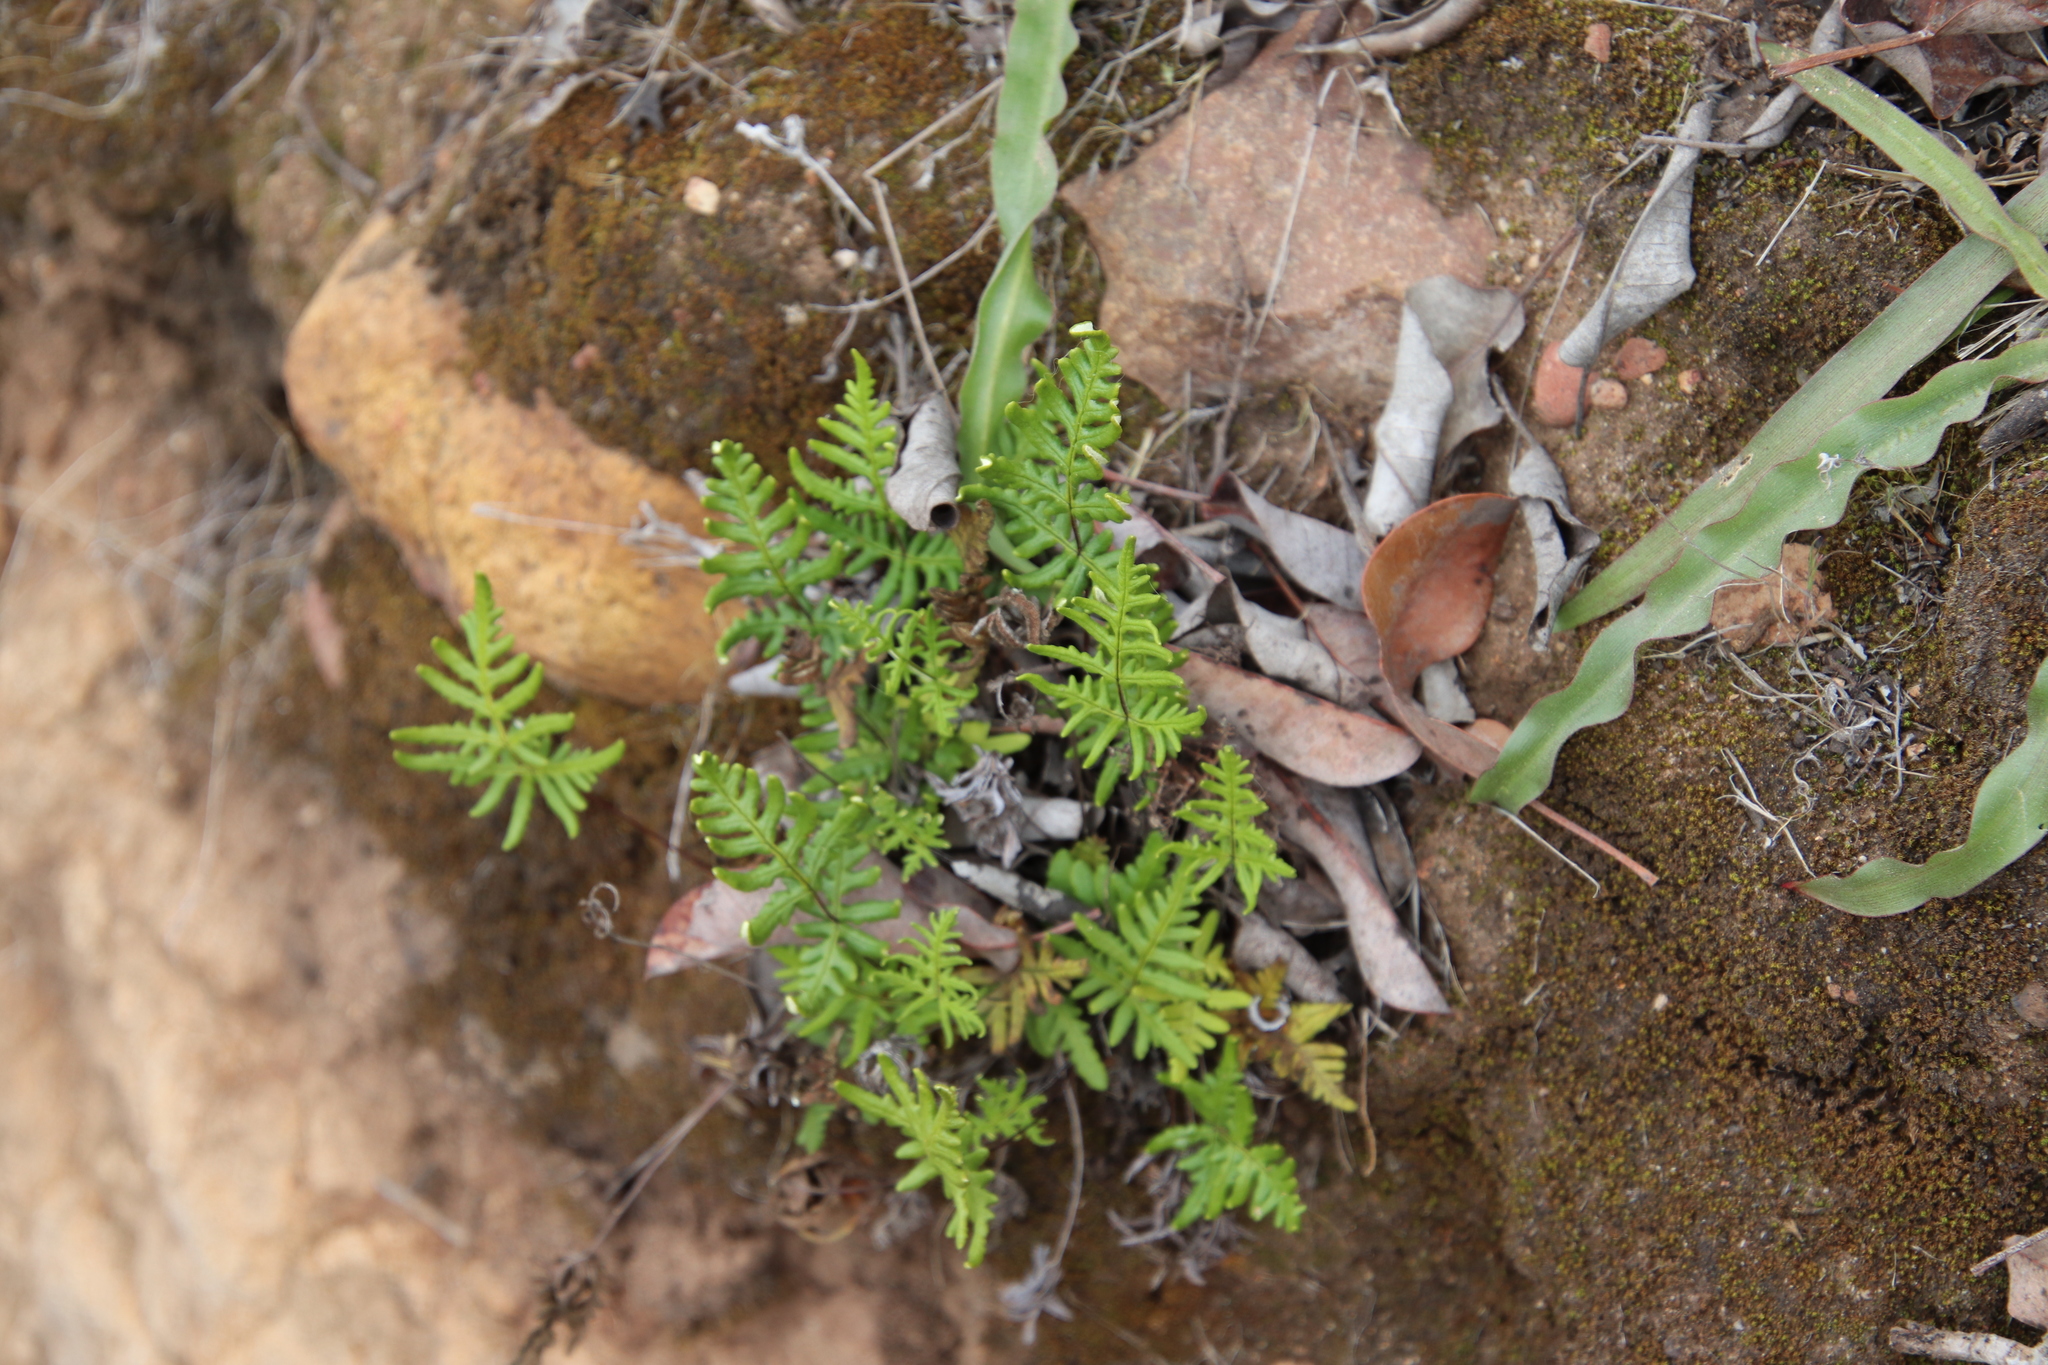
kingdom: Plantae
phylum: Tracheophyta
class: Polypodiopsida
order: Polypodiales
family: Pteridaceae
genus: Pentagramma
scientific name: Pentagramma viscosa
